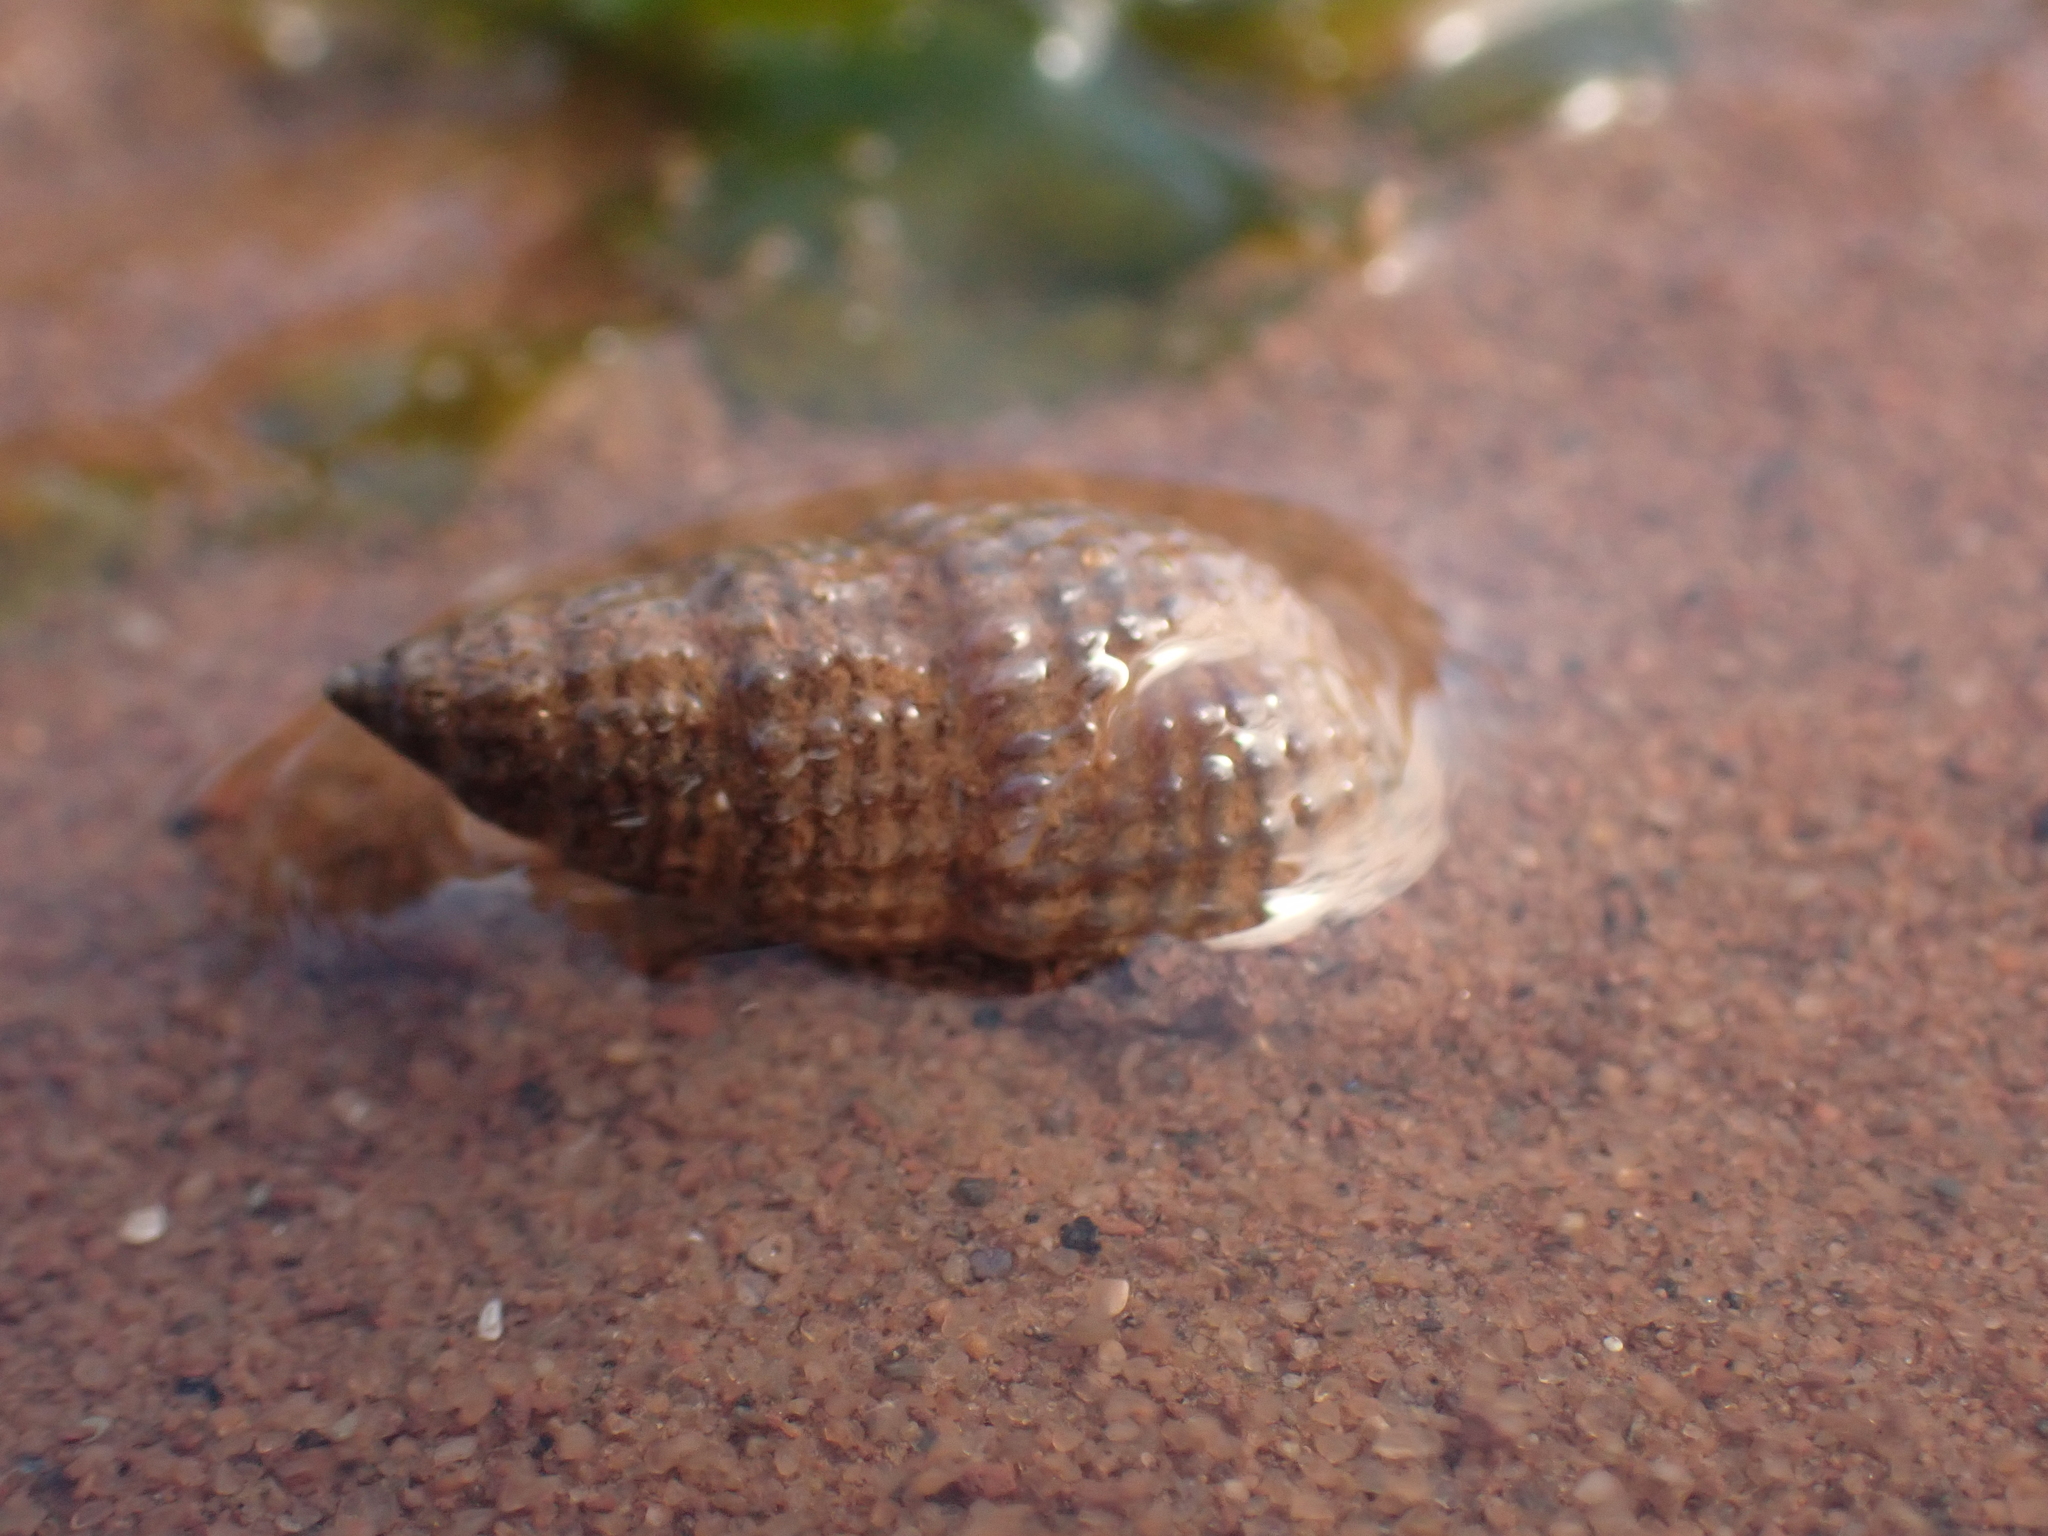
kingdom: Animalia
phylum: Mollusca
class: Gastropoda
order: Neogastropoda
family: Nassariidae
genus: Ilyanassa
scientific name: Ilyanassa trivittata
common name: Three-line mudsnail
